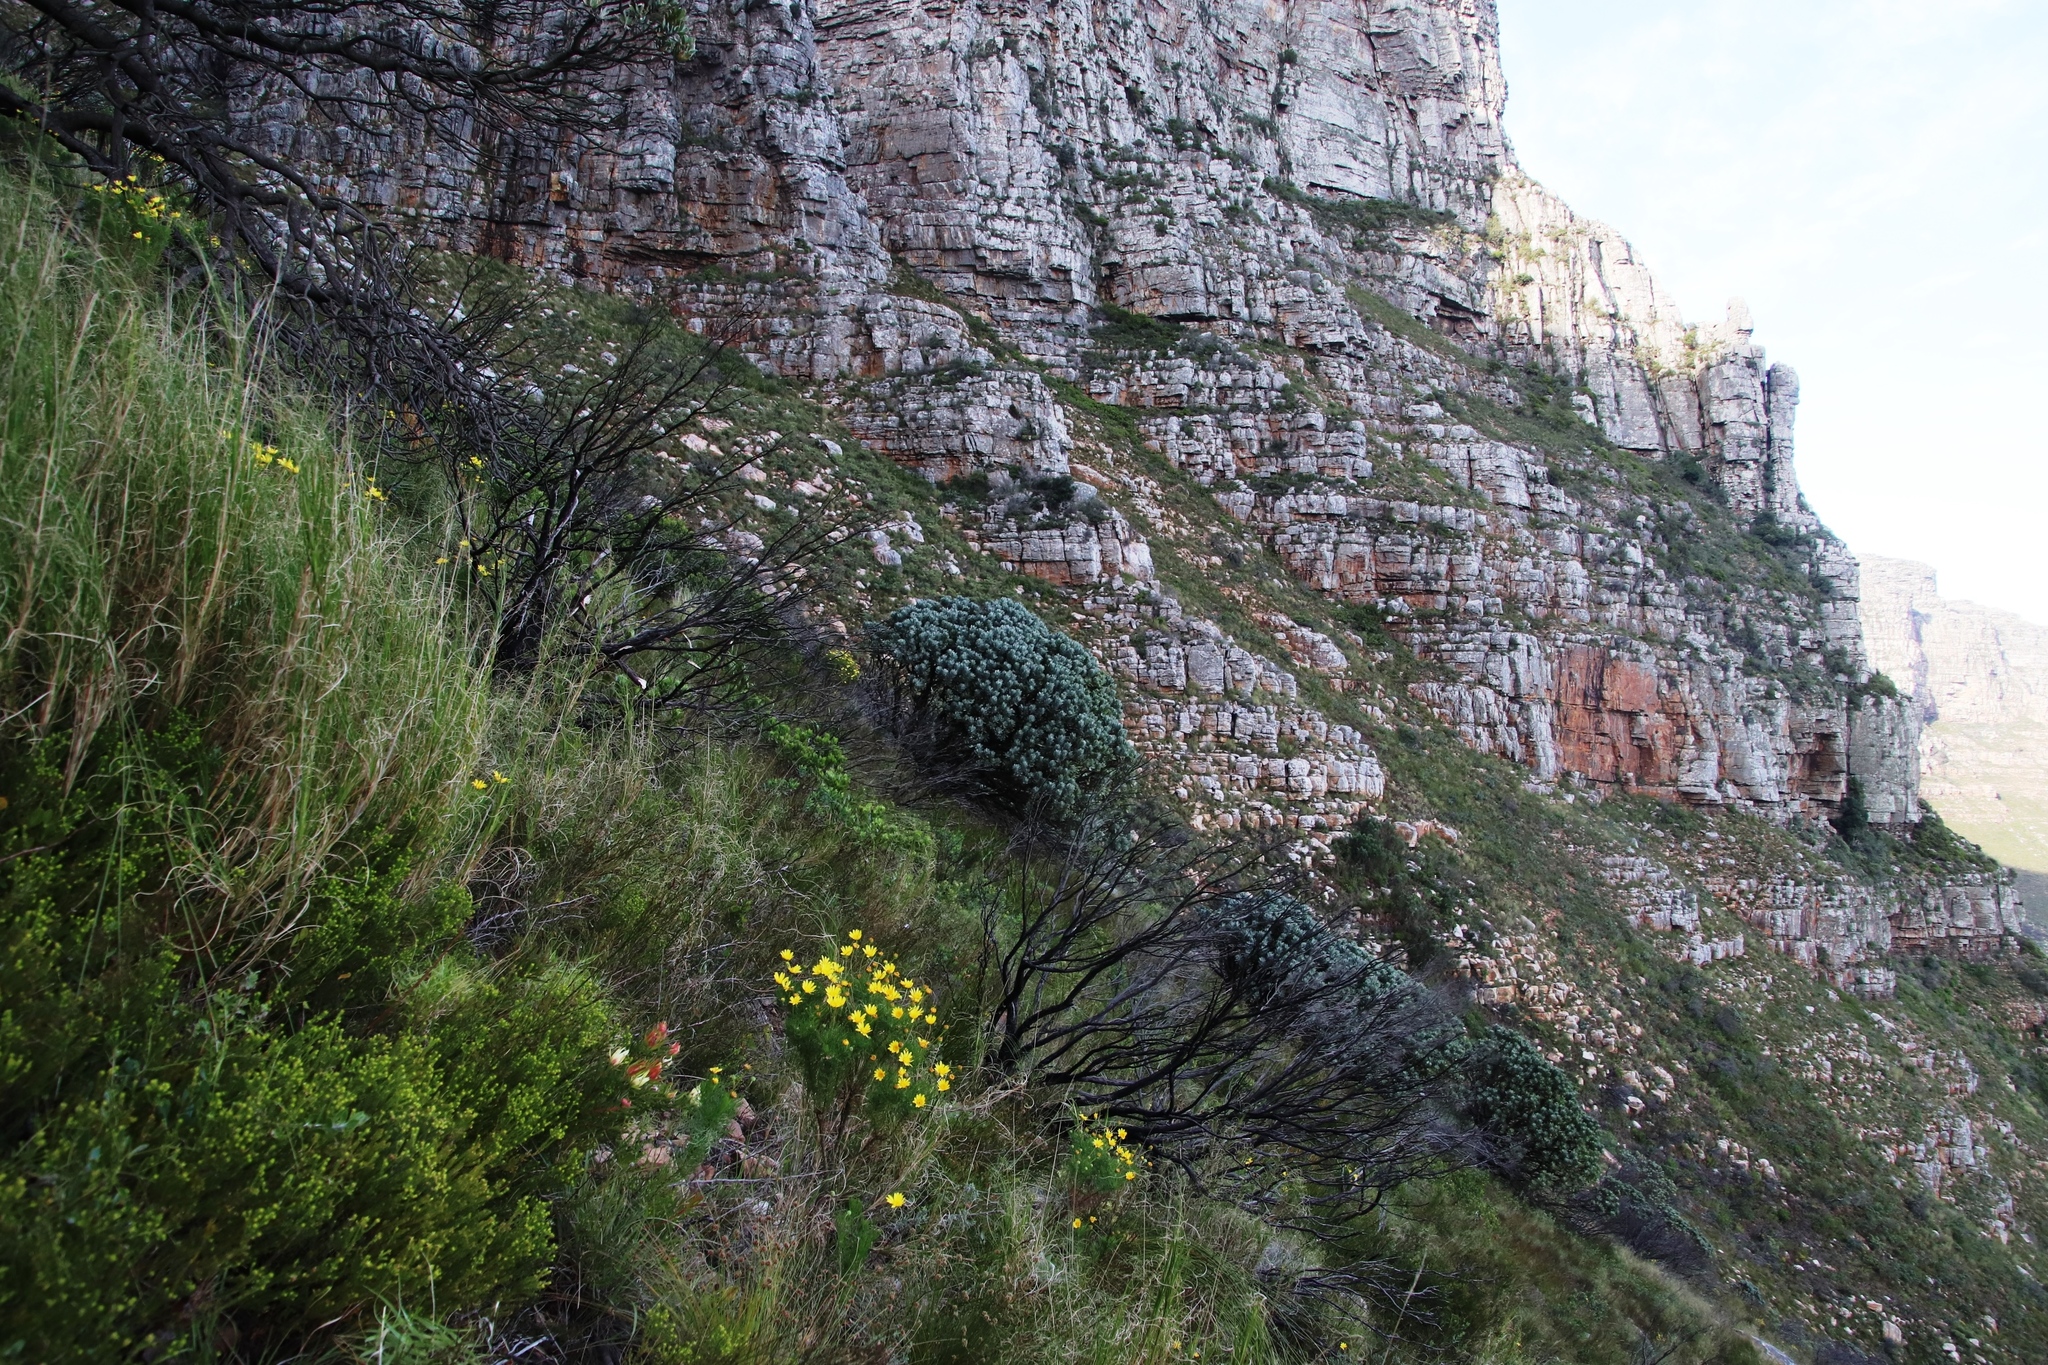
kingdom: Plantae
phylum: Tracheophyta
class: Magnoliopsida
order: Proteales
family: Proteaceae
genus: Leucospermum
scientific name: Leucospermum conocarpodendron
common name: Tree pincushion
